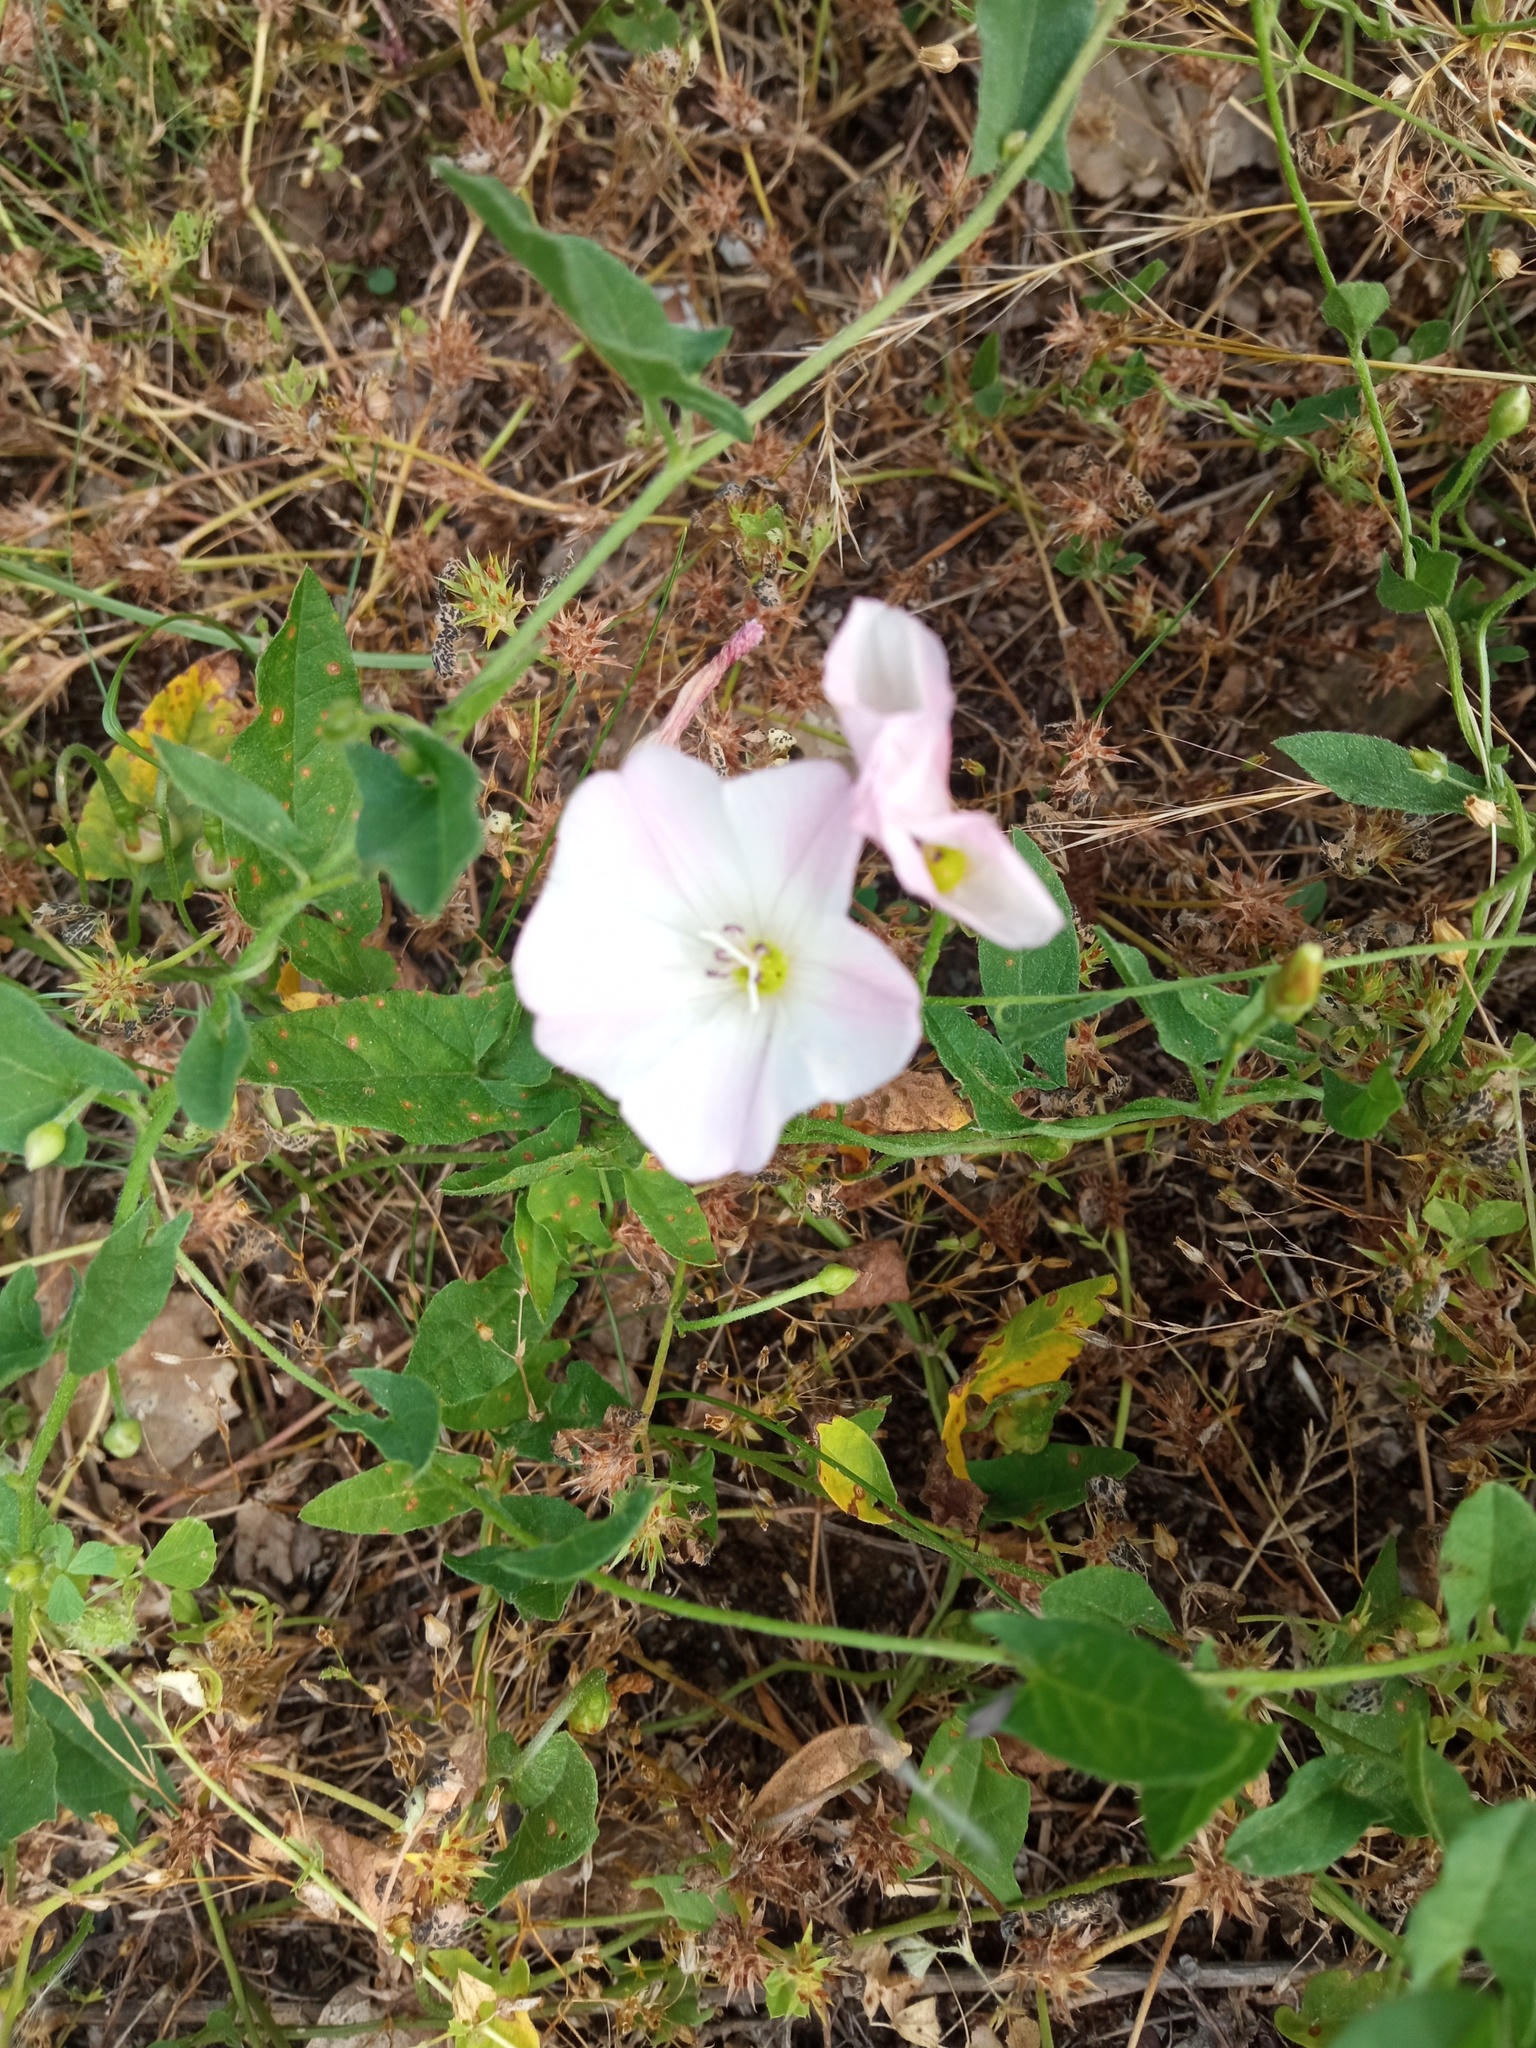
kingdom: Plantae
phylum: Tracheophyta
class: Magnoliopsida
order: Solanales
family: Convolvulaceae
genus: Convolvulus
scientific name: Convolvulus arvensis
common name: Field bindweed
